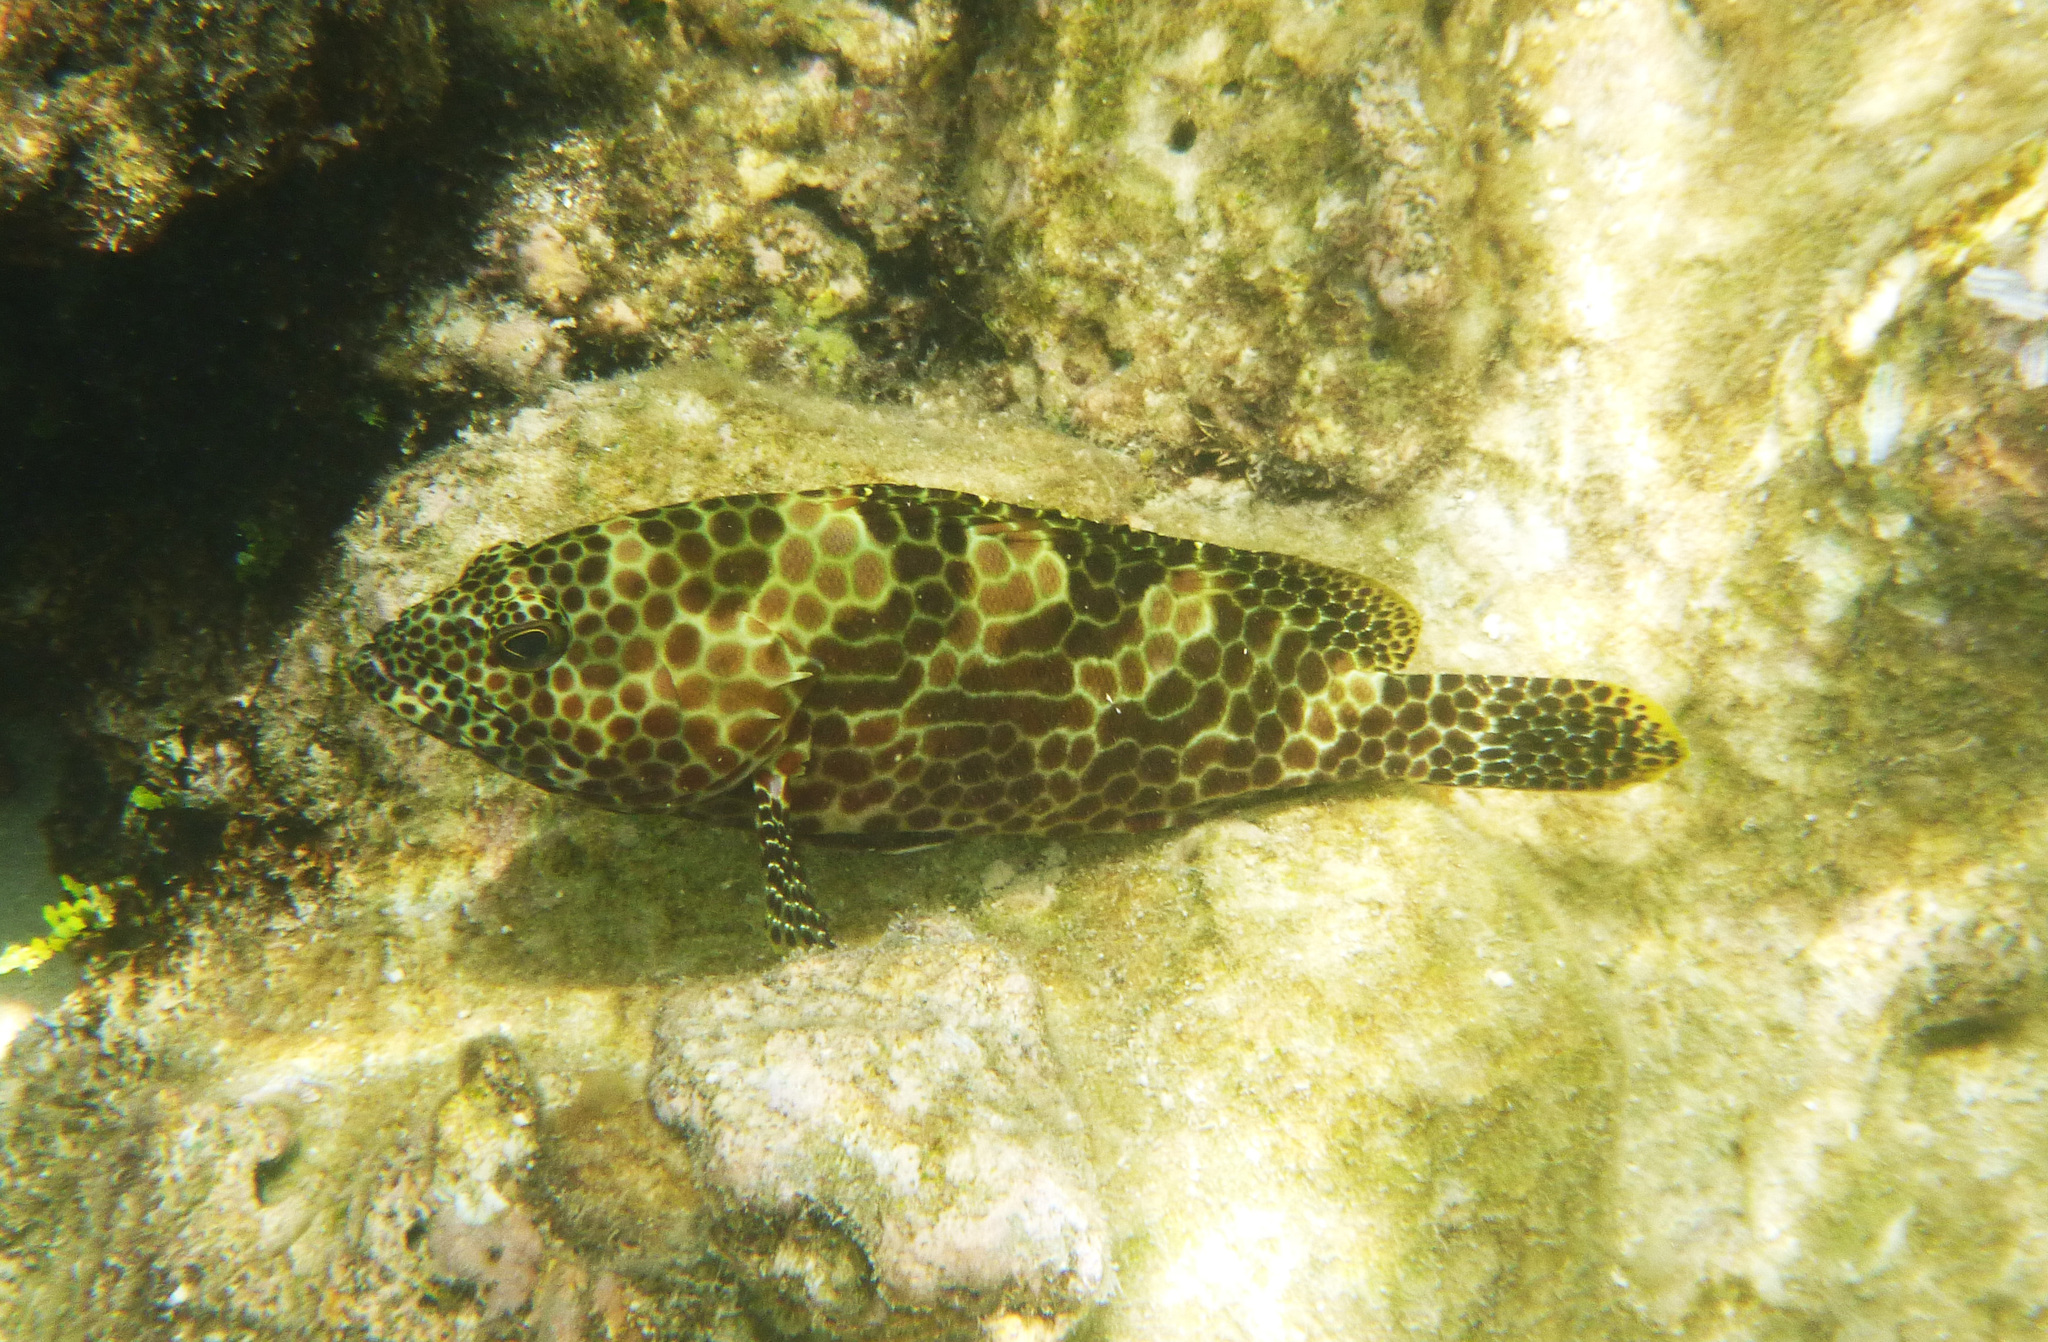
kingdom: Animalia
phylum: Chordata
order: Perciformes
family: Serranidae
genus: Epinephelus
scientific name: Epinephelus merra
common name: Honeycomb grouper
